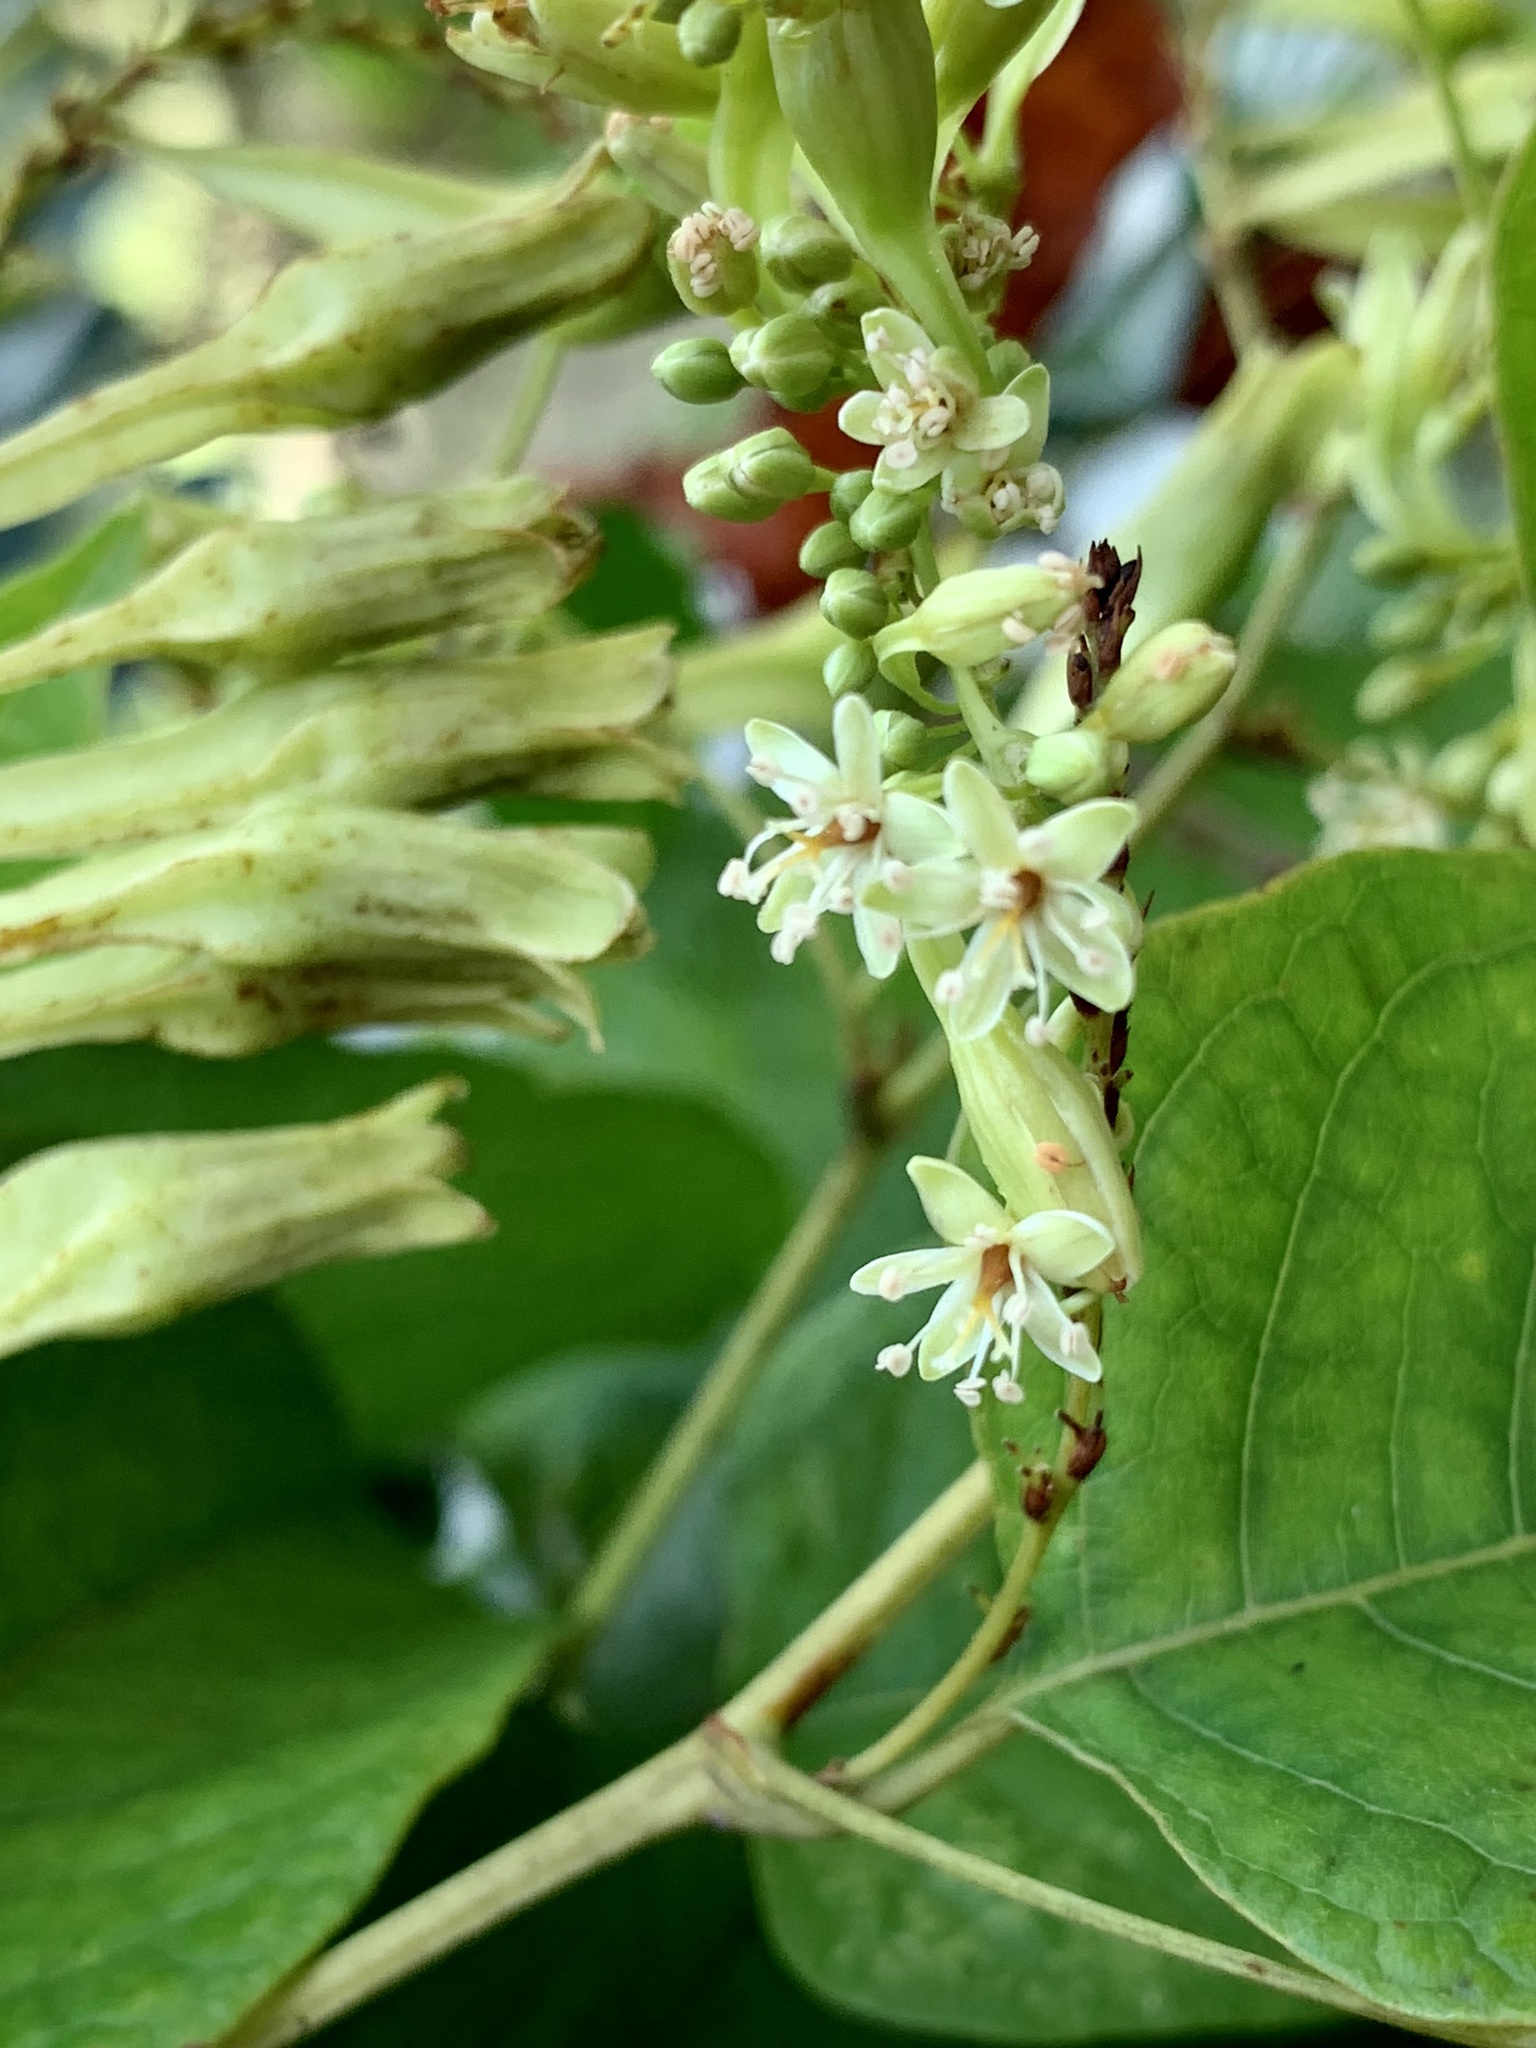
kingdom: Plantae
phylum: Tracheophyta
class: Magnoliopsida
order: Caryophyllales
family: Polygonaceae
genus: Brunnichia
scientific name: Brunnichia ovata
